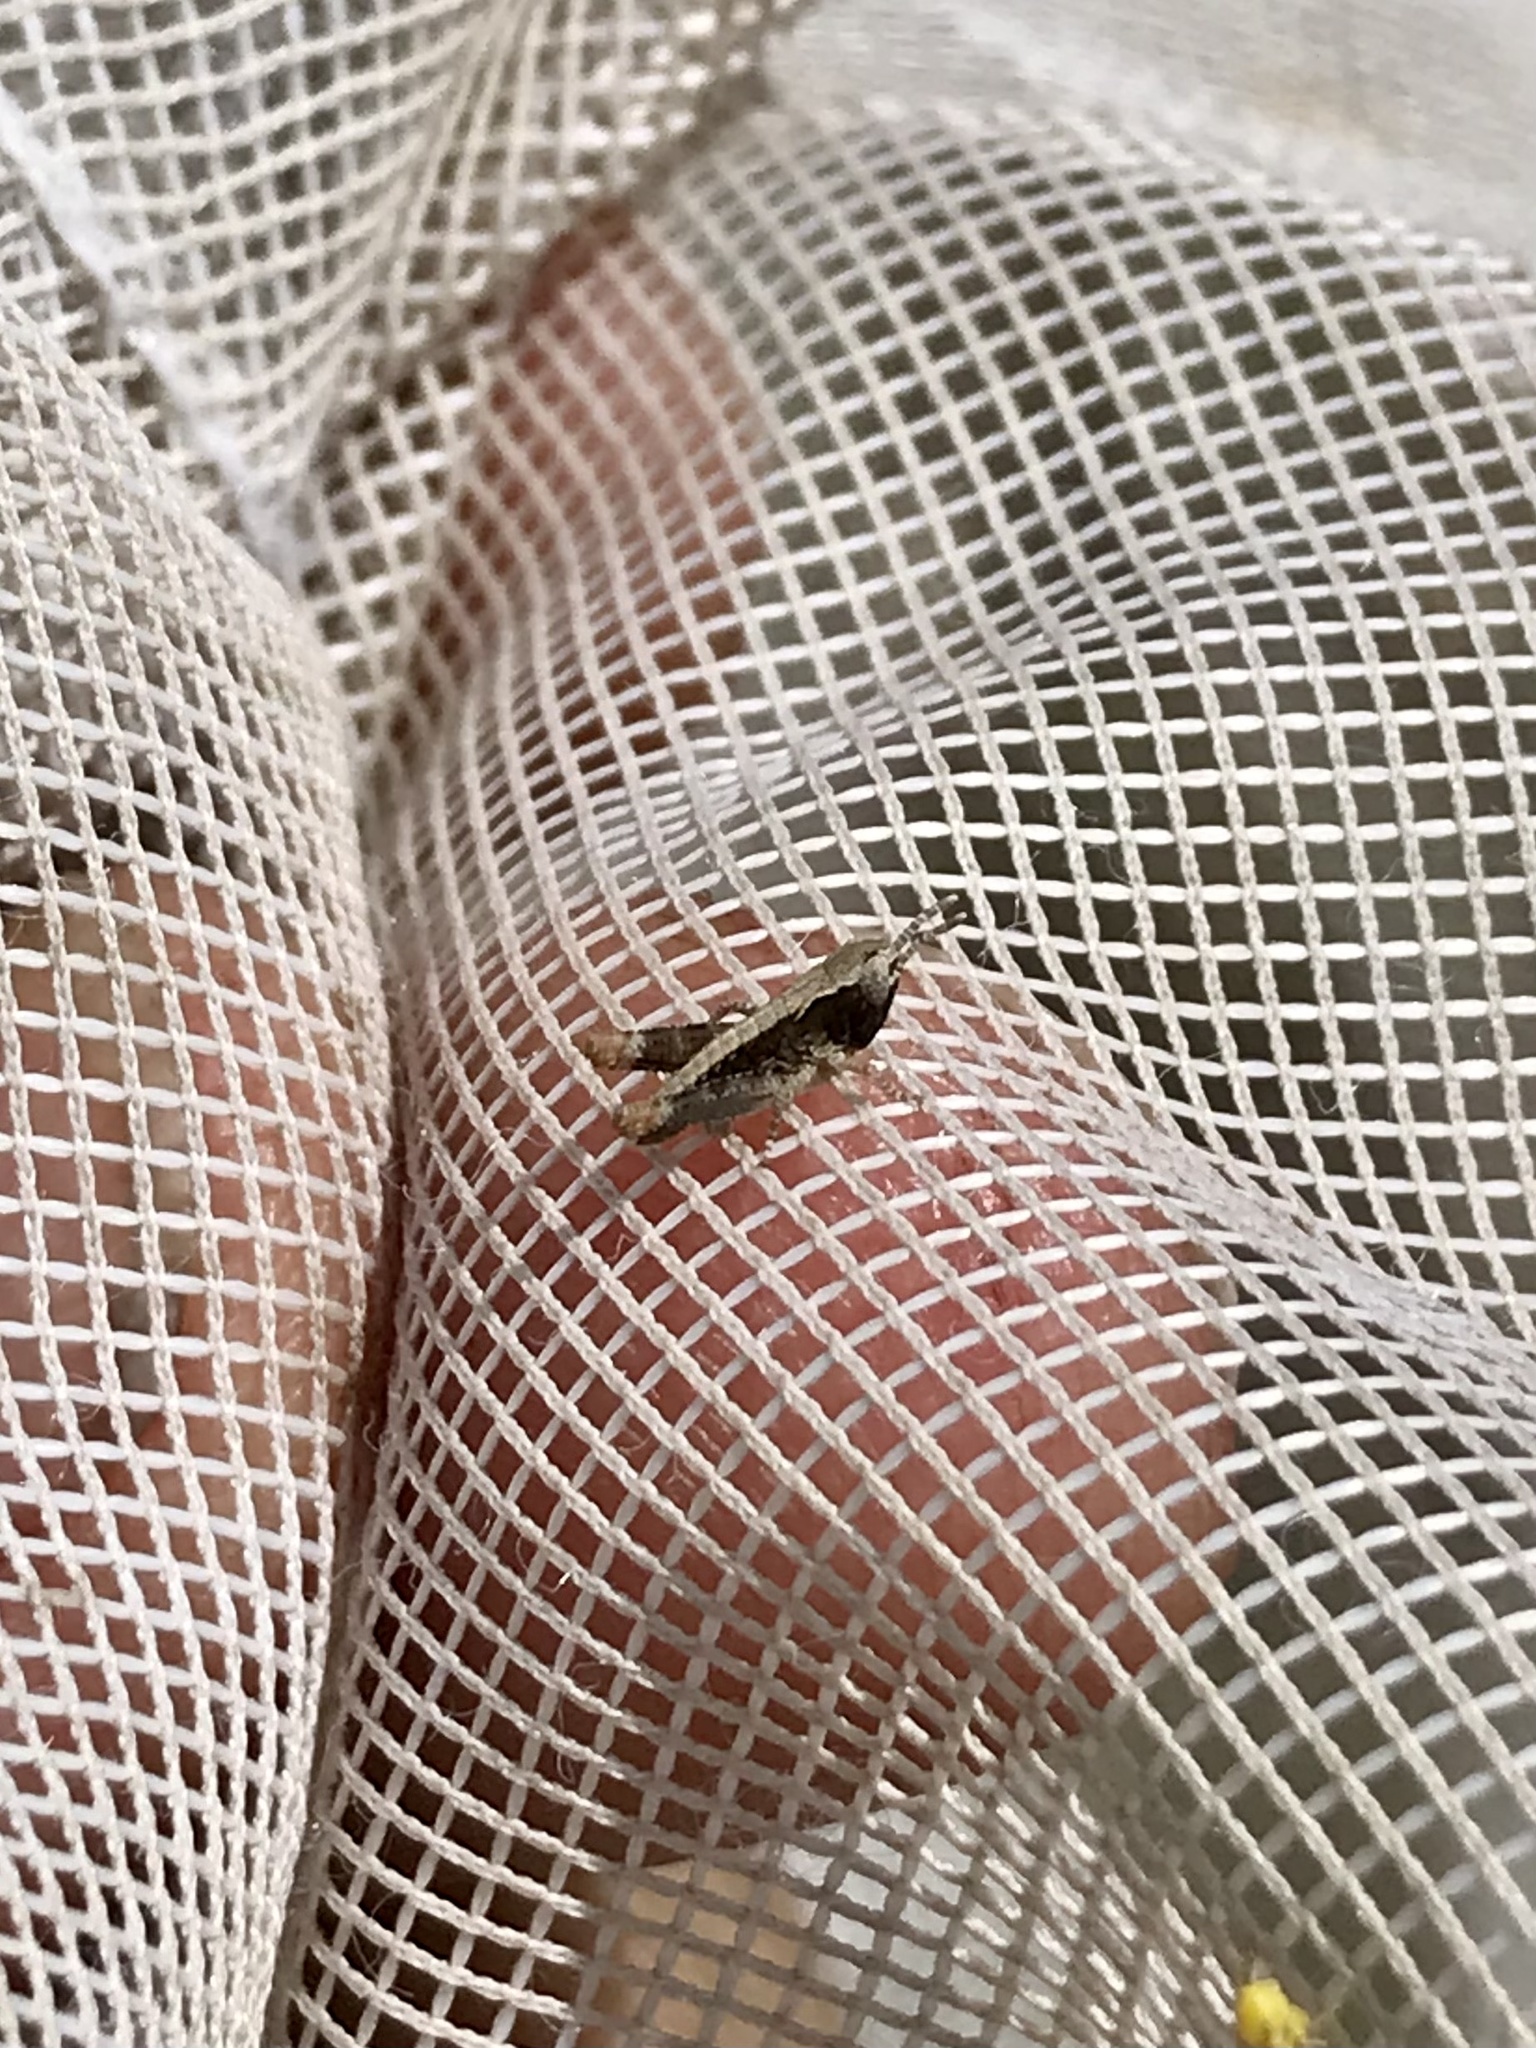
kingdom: Animalia
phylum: Arthropoda
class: Insecta
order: Orthoptera
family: Acrididae
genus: Ageneotettix
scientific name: Ageneotettix deorum
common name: White-whiskered grasshopper
